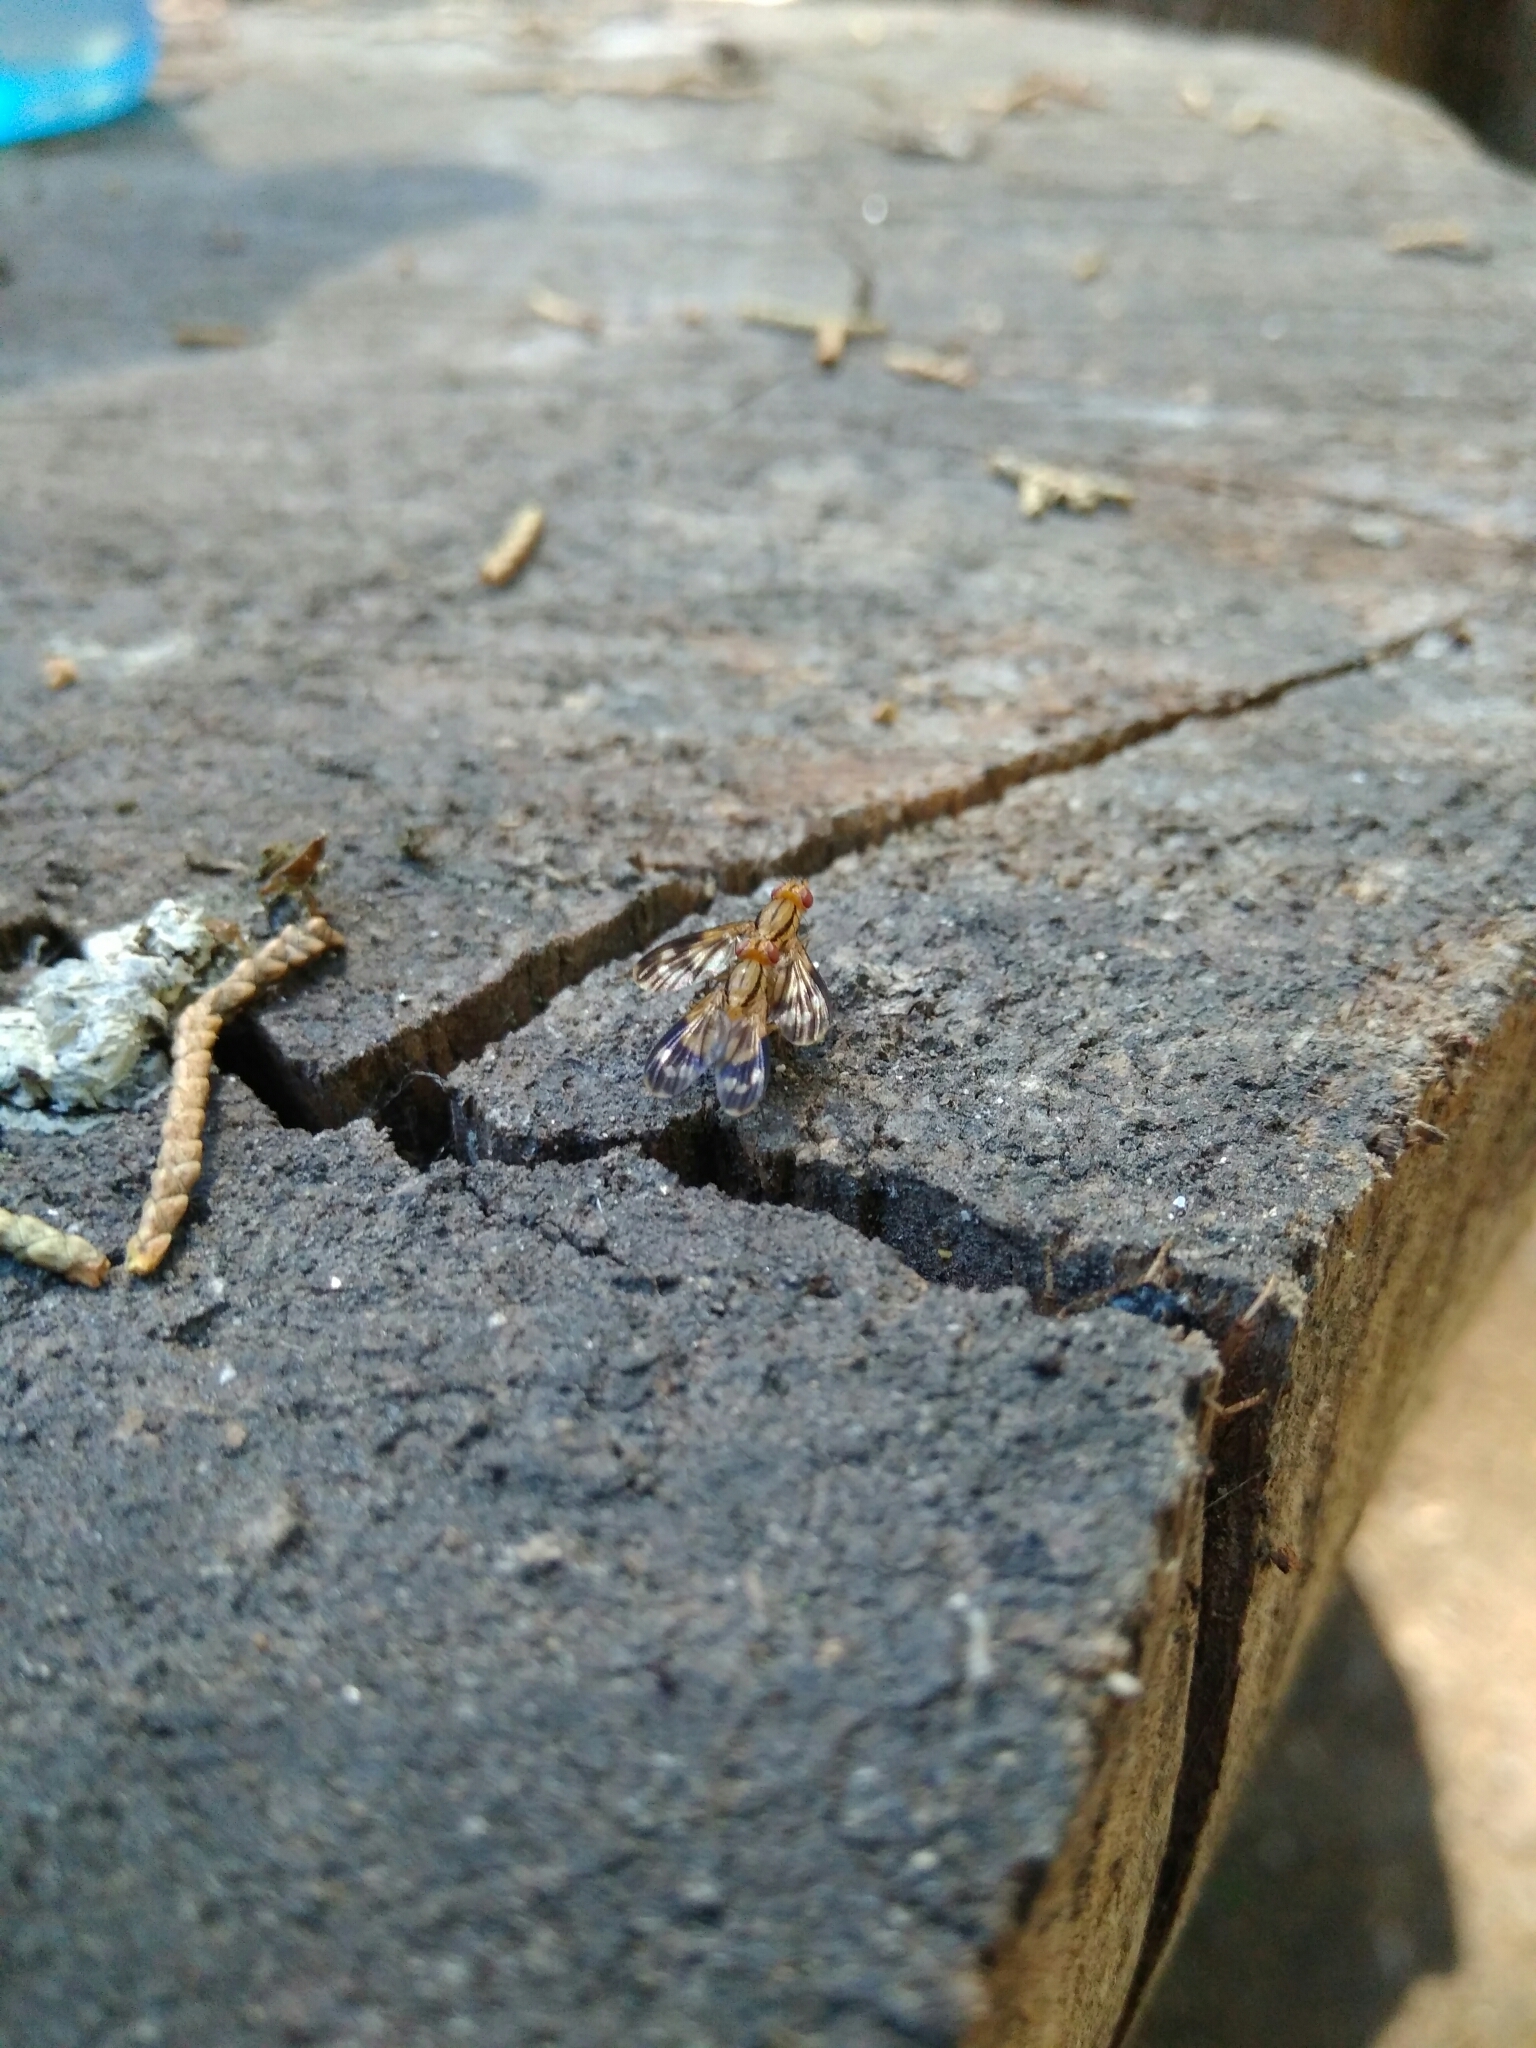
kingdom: Animalia
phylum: Arthropoda
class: Insecta
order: Diptera
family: Clusiidae
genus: Apiochaeta
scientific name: Apiochaeta philippii
